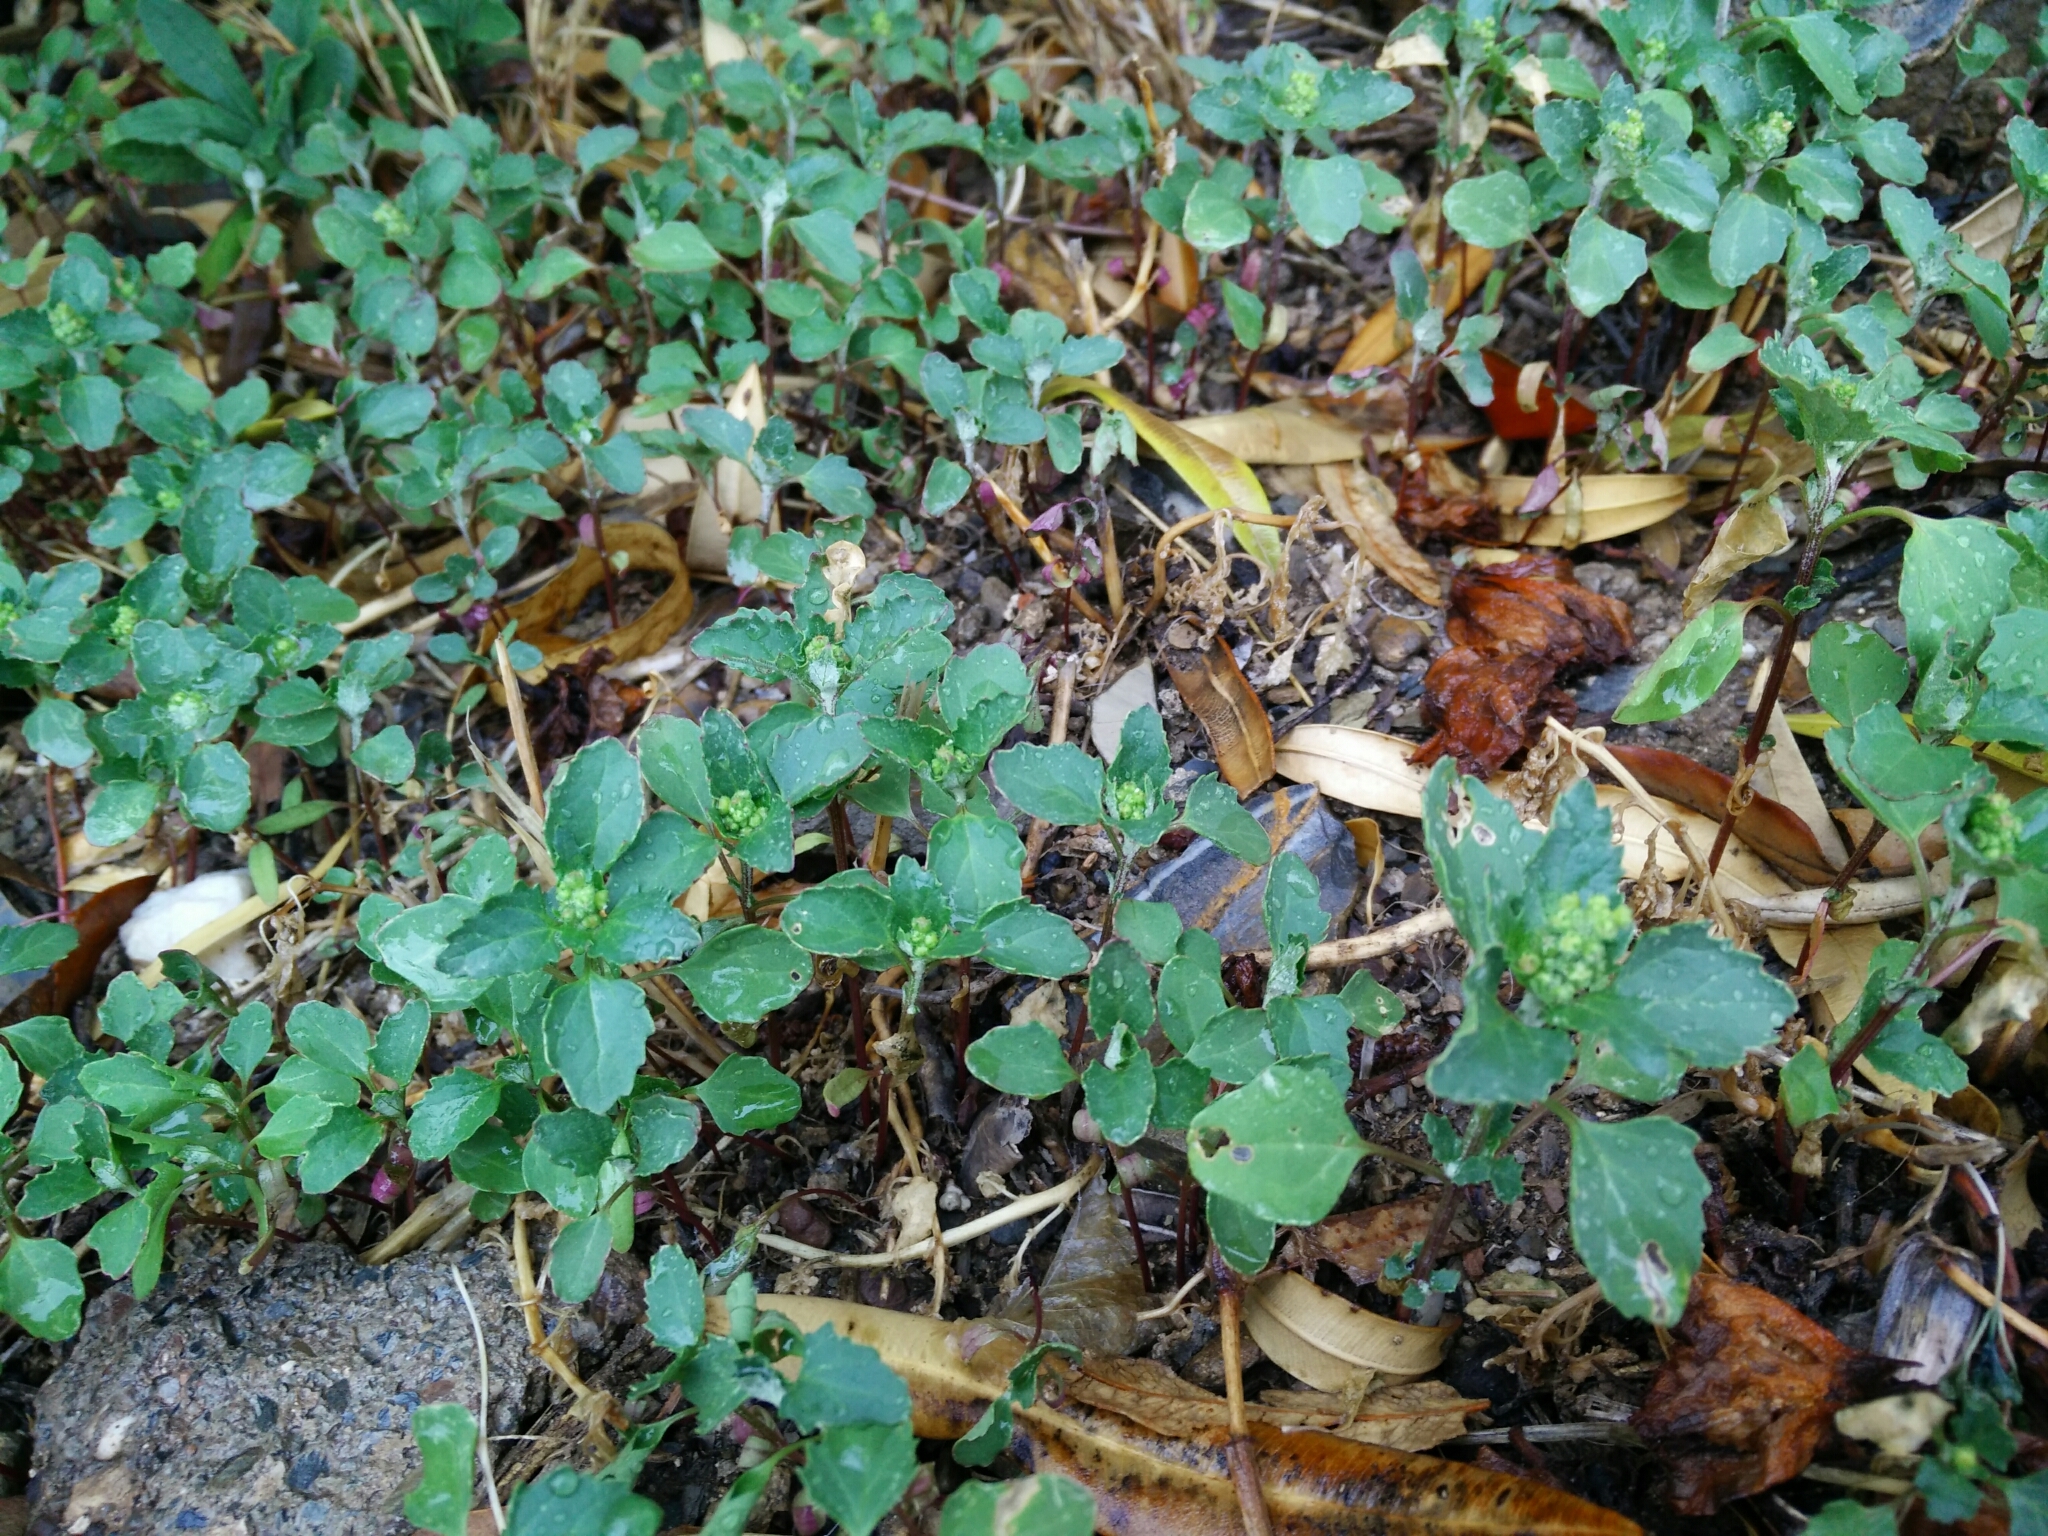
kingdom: Plantae
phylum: Tracheophyta
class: Magnoliopsida
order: Caryophyllales
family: Amaranthaceae
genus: Chenopodiastrum
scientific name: Chenopodiastrum murale
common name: Sowbane
